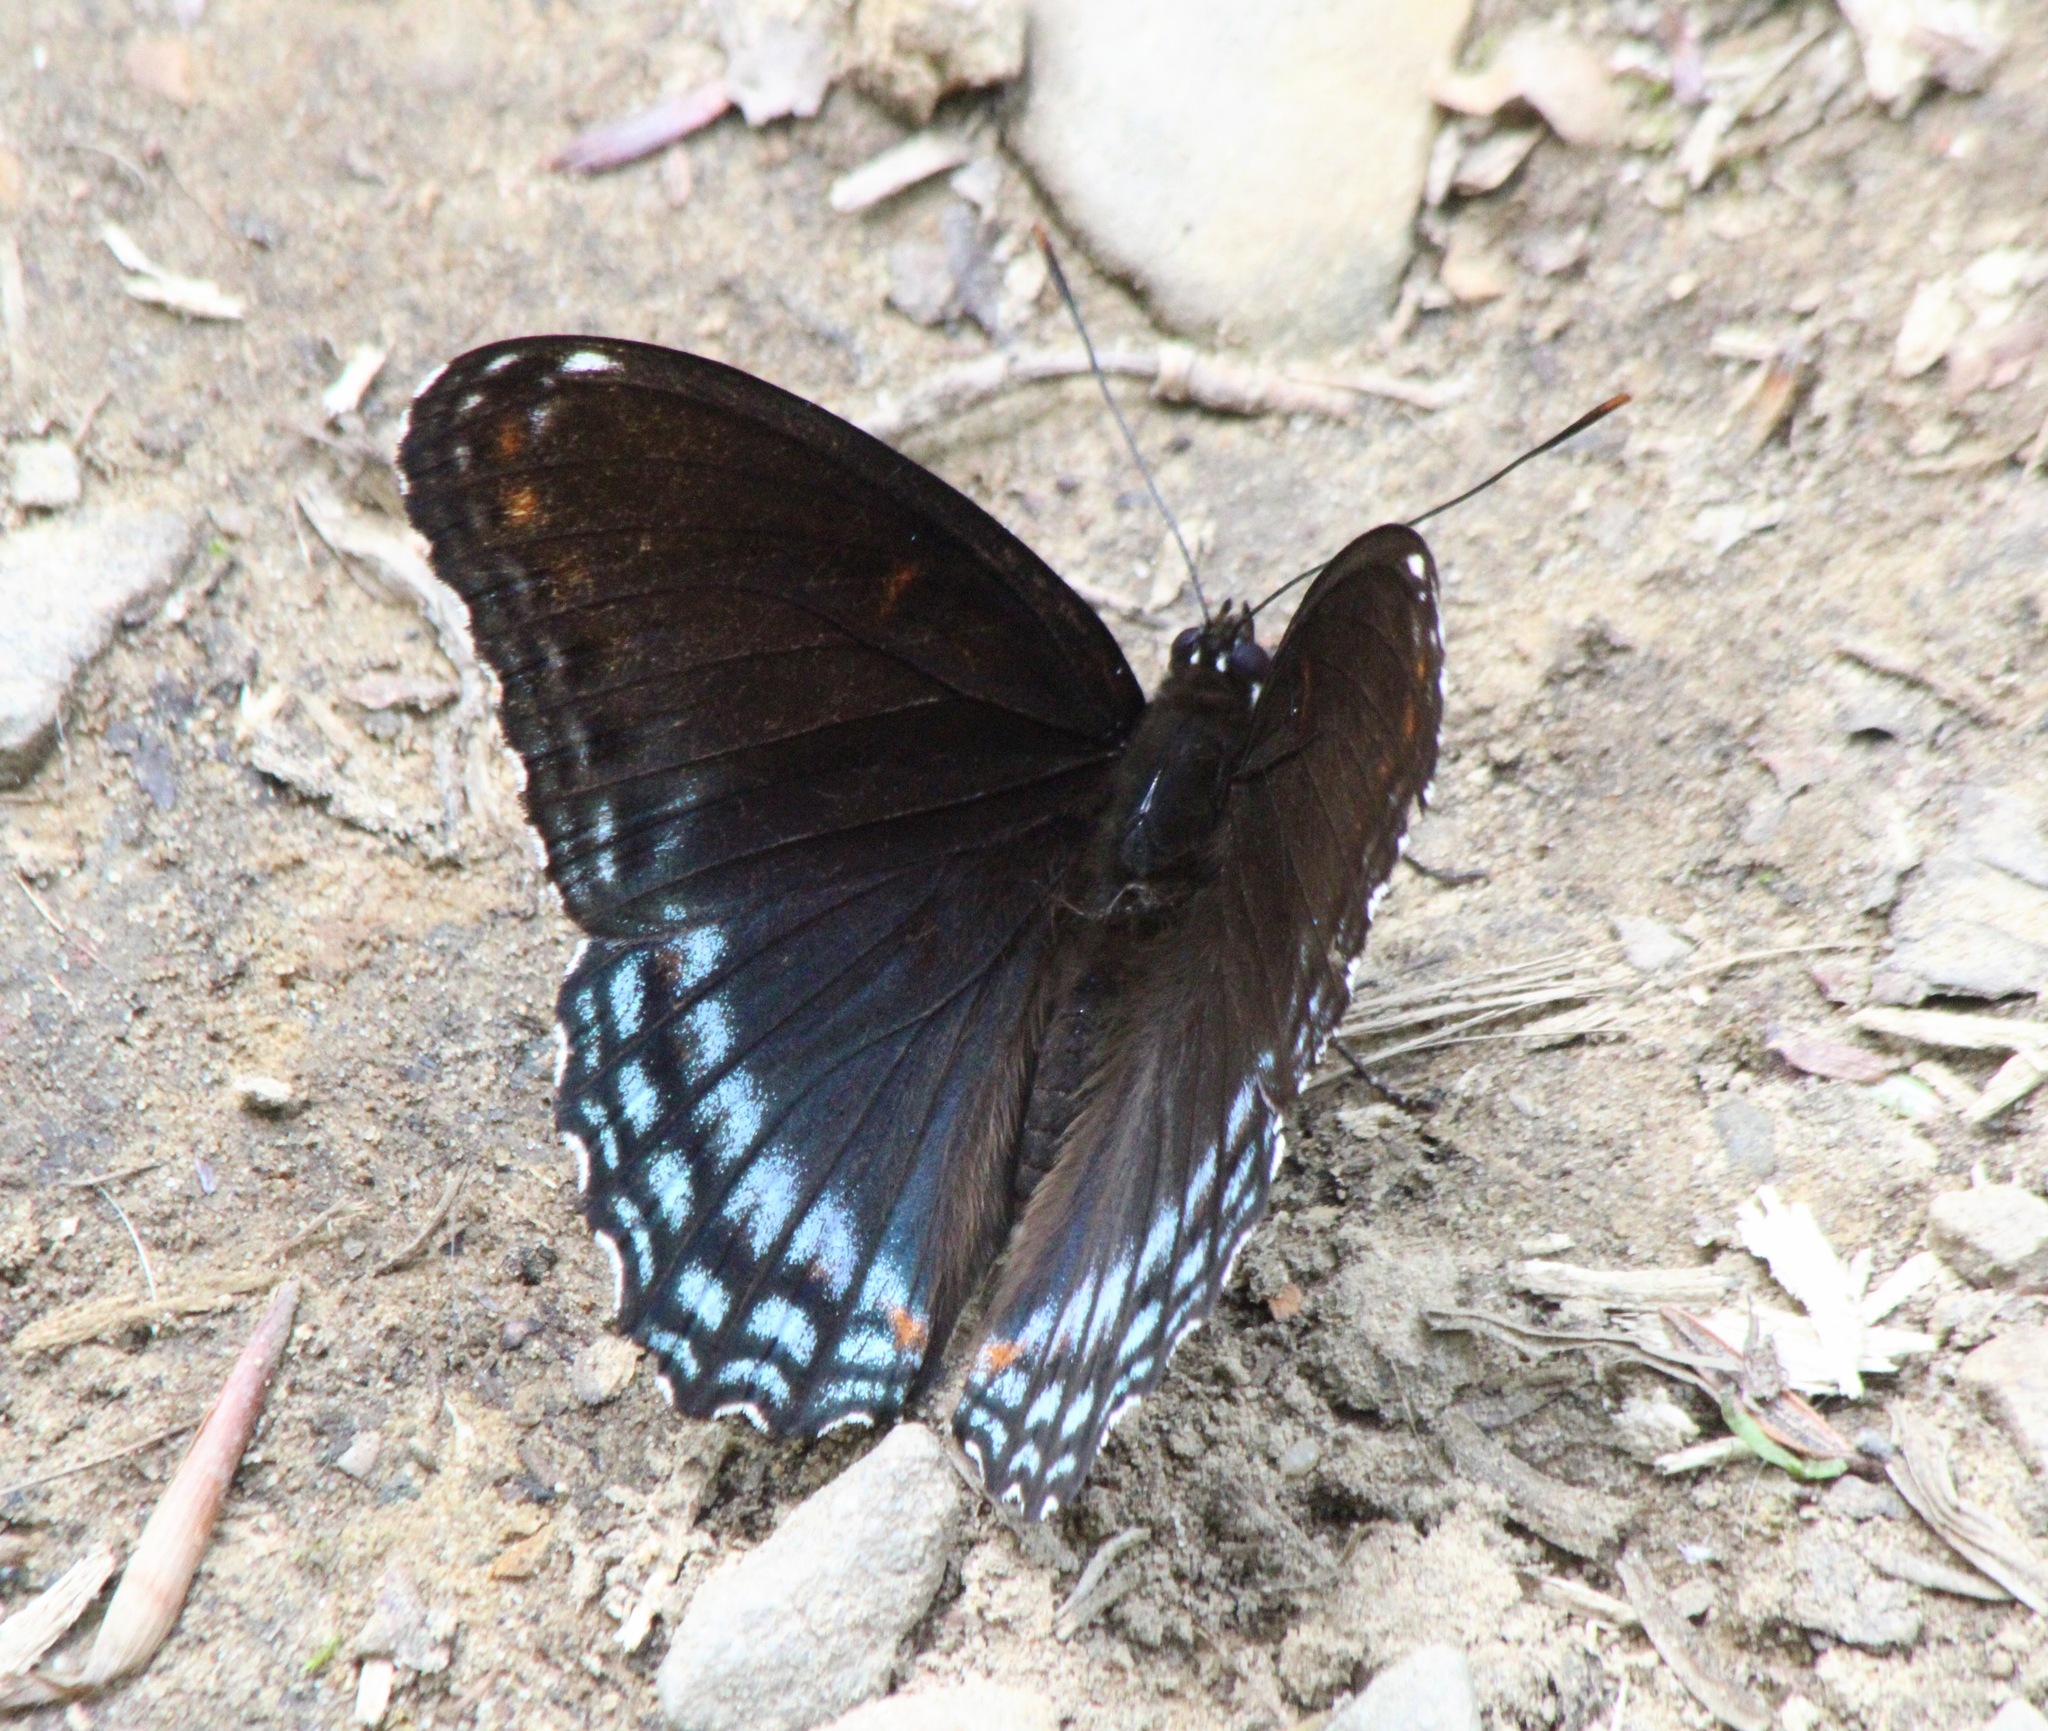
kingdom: Animalia
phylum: Arthropoda
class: Insecta
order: Lepidoptera
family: Nymphalidae
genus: Limenitis
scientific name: Limenitis arthemis
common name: Red-spotted admiral
